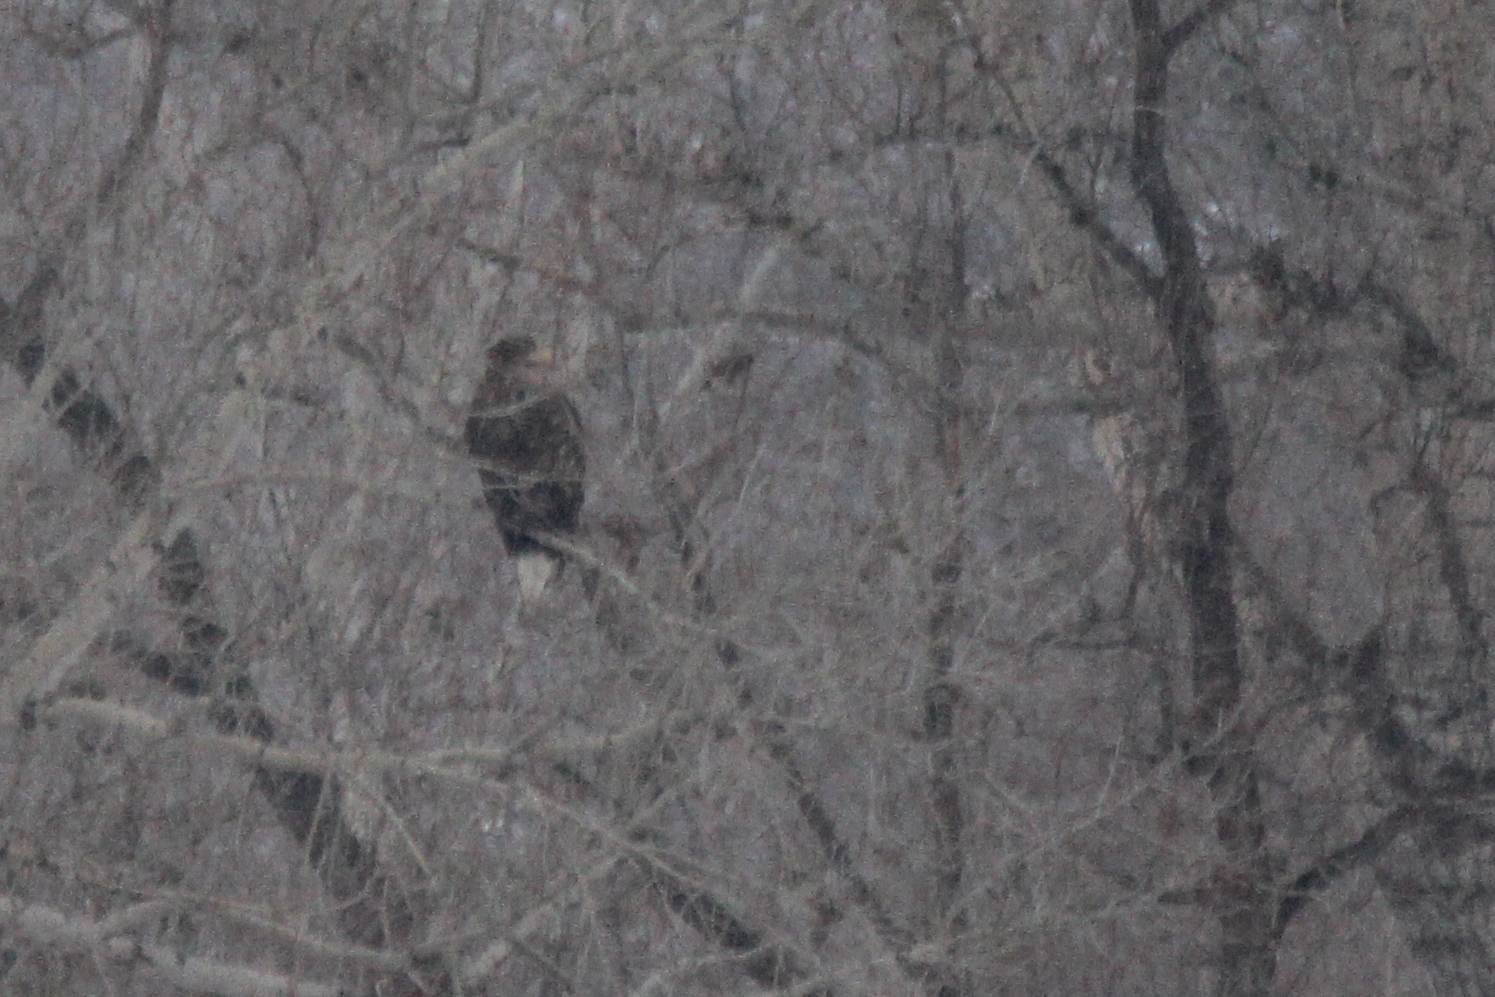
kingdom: Animalia
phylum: Chordata
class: Aves
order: Accipitriformes
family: Accipitridae
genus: Haliaeetus
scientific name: Haliaeetus albicilla
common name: White-tailed eagle
